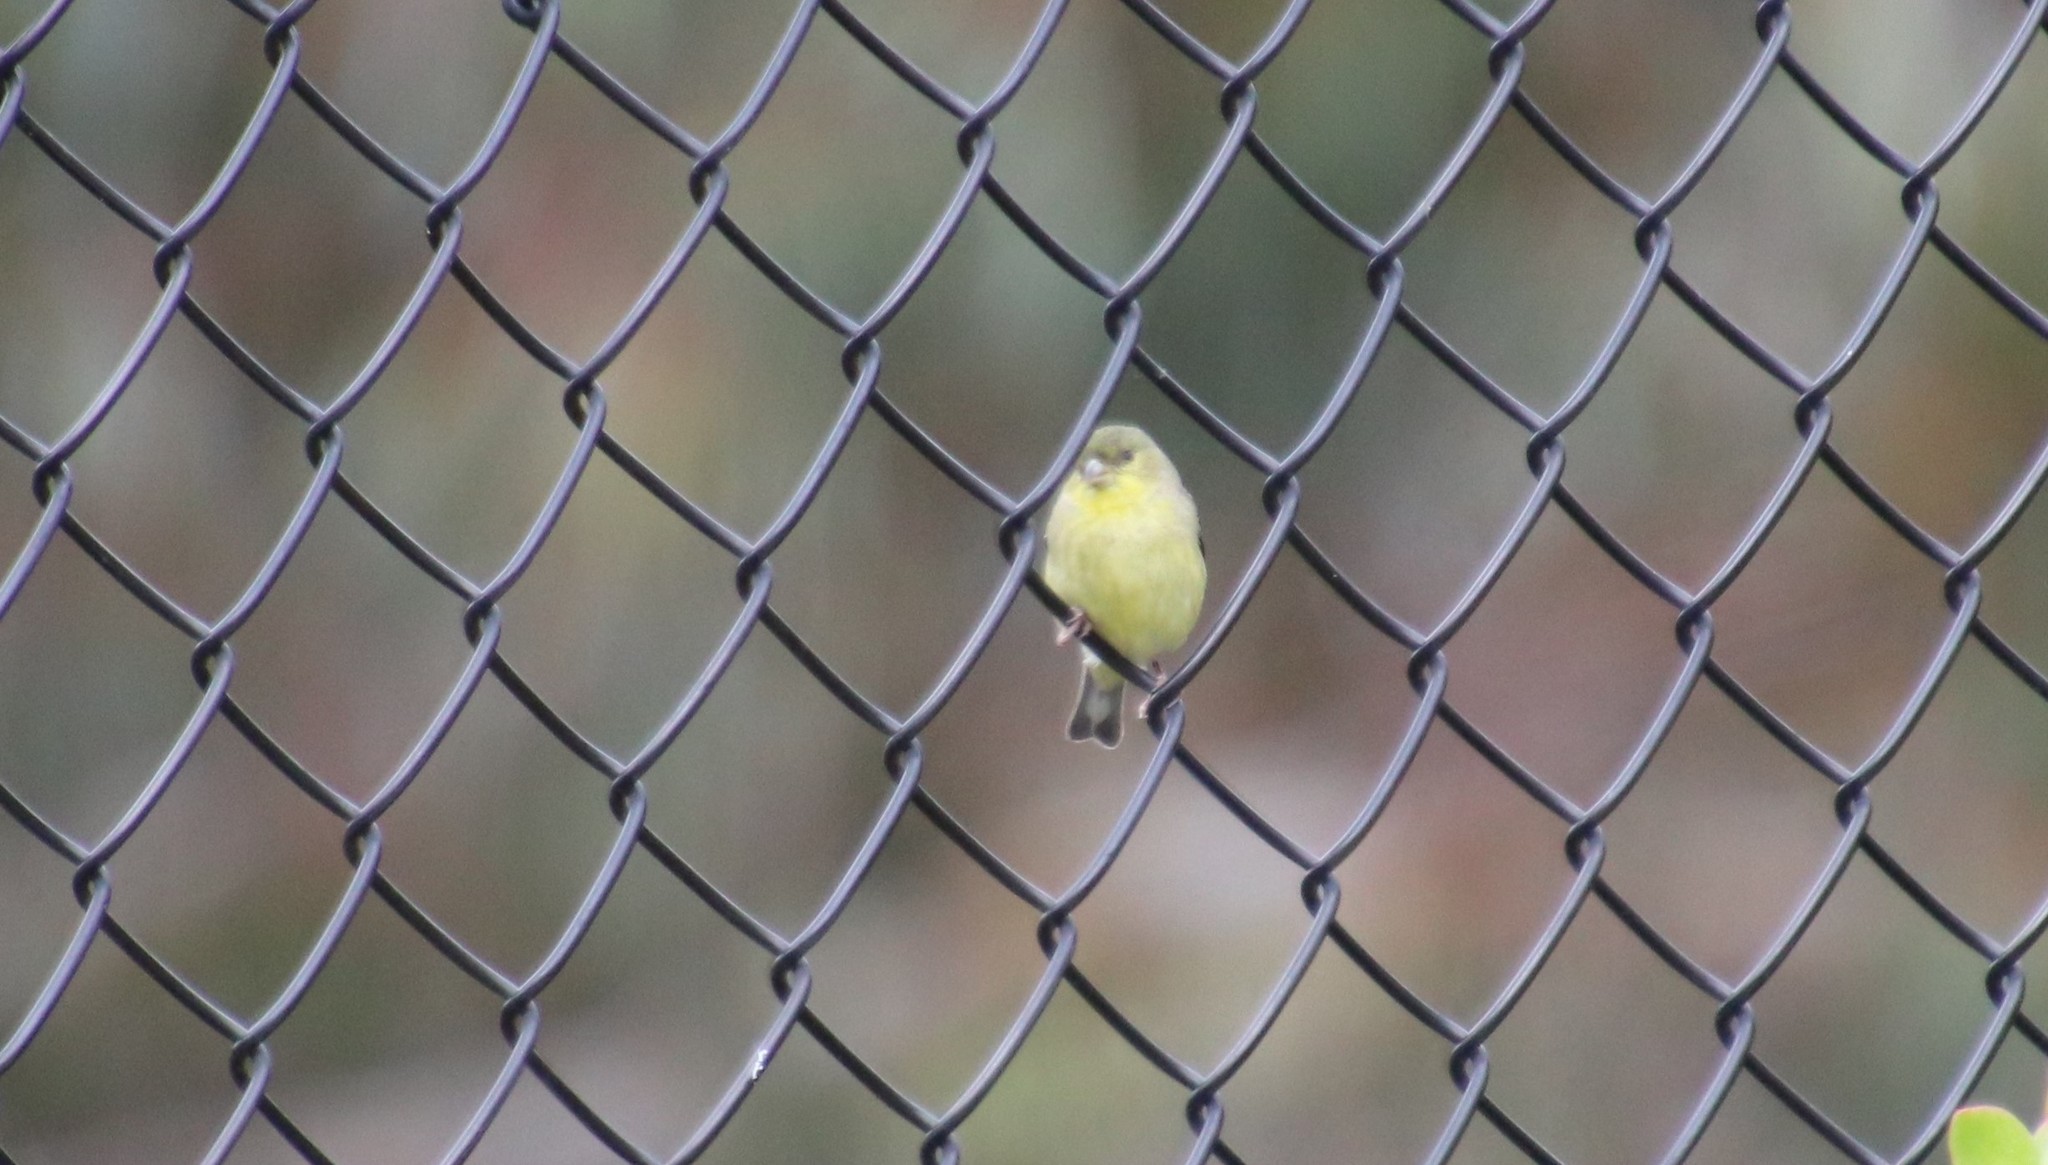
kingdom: Animalia
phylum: Chordata
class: Aves
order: Passeriformes
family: Fringillidae
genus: Spinus
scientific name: Spinus psaltria
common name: Lesser goldfinch
